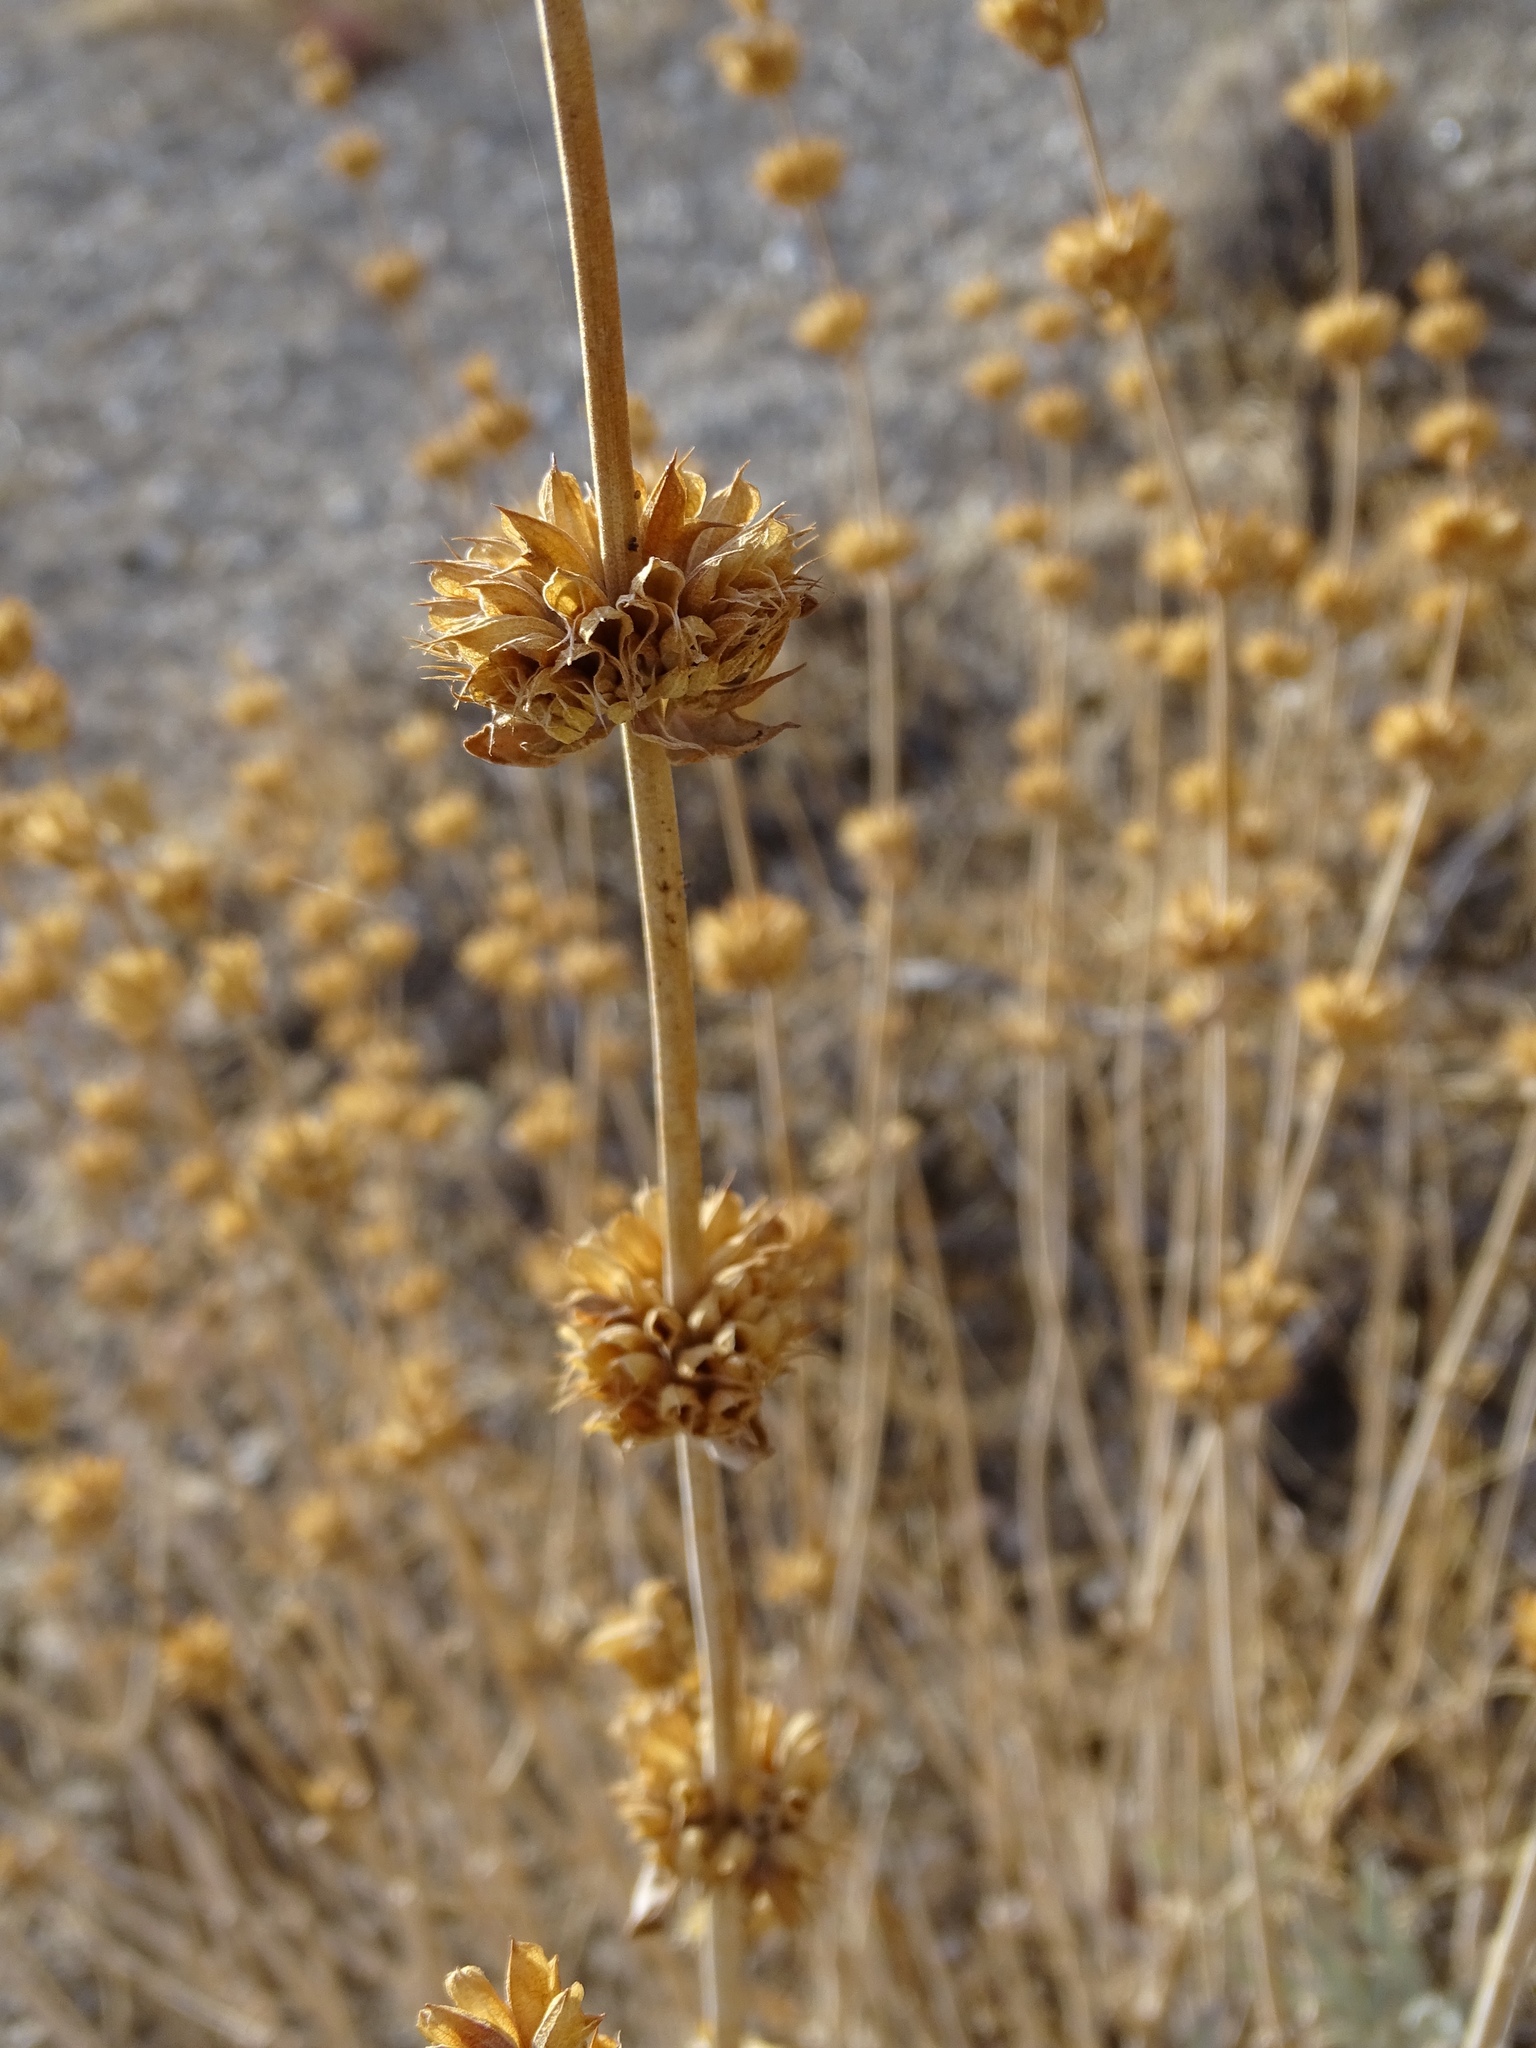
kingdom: Plantae
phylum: Tracheophyta
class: Magnoliopsida
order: Lamiales
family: Lamiaceae
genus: Salvia
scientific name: Salvia vaseyi
